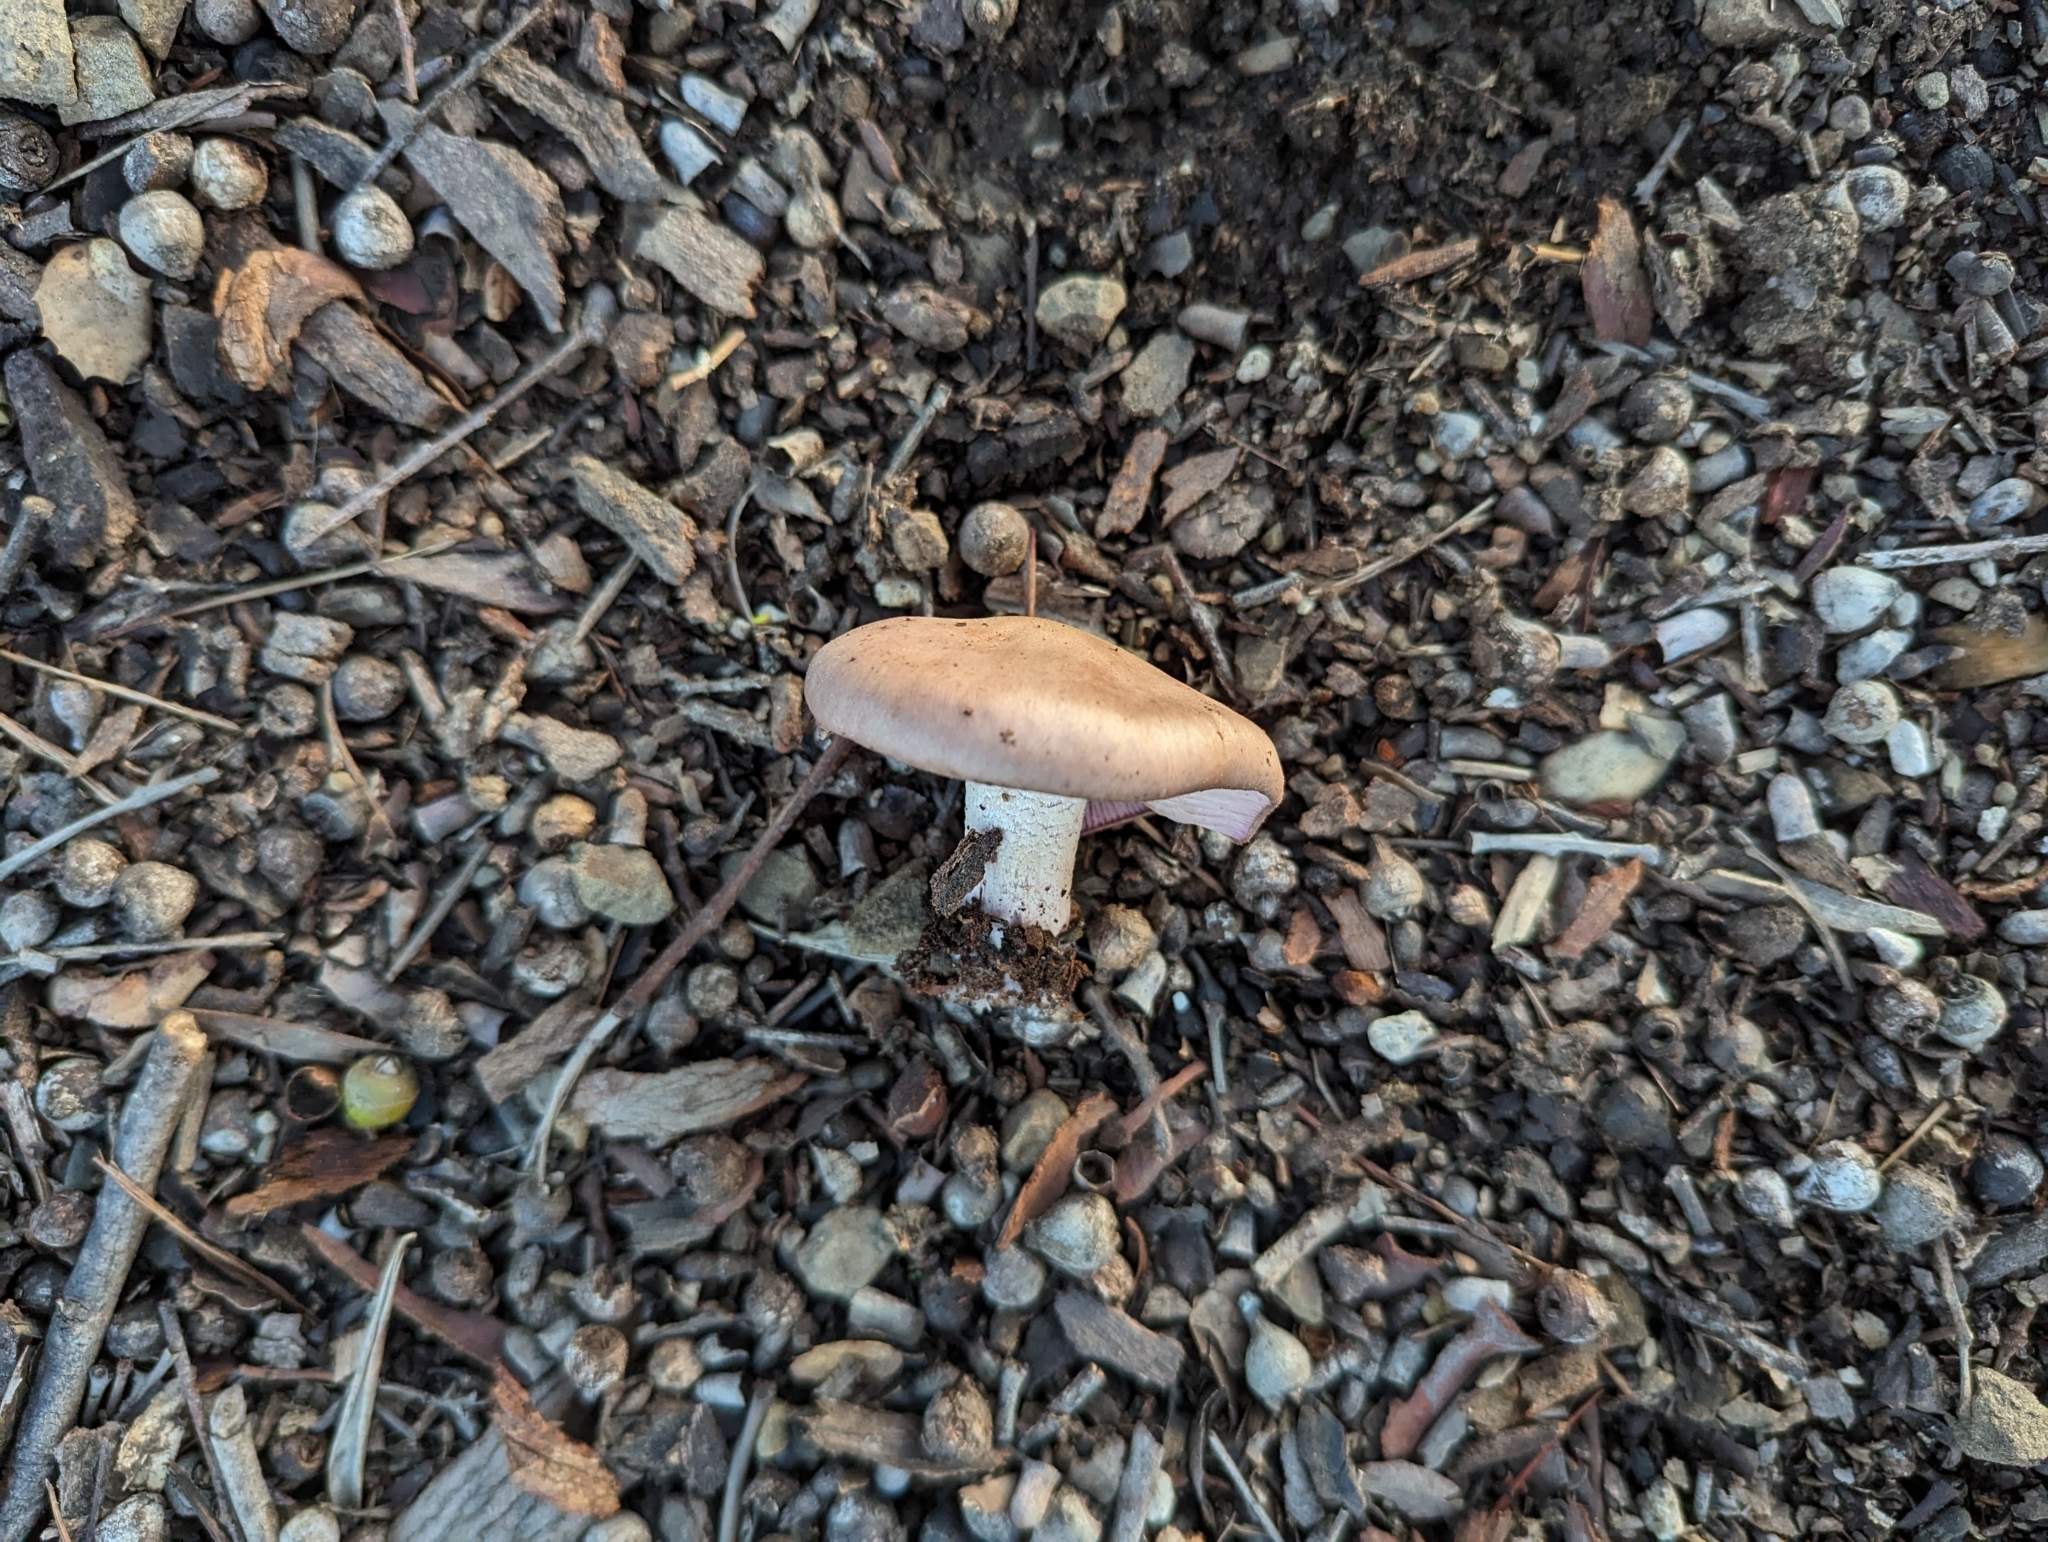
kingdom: Fungi
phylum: Basidiomycota
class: Agaricomycetes
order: Agaricales
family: Tricholomataceae
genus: Collybia
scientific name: Collybia
